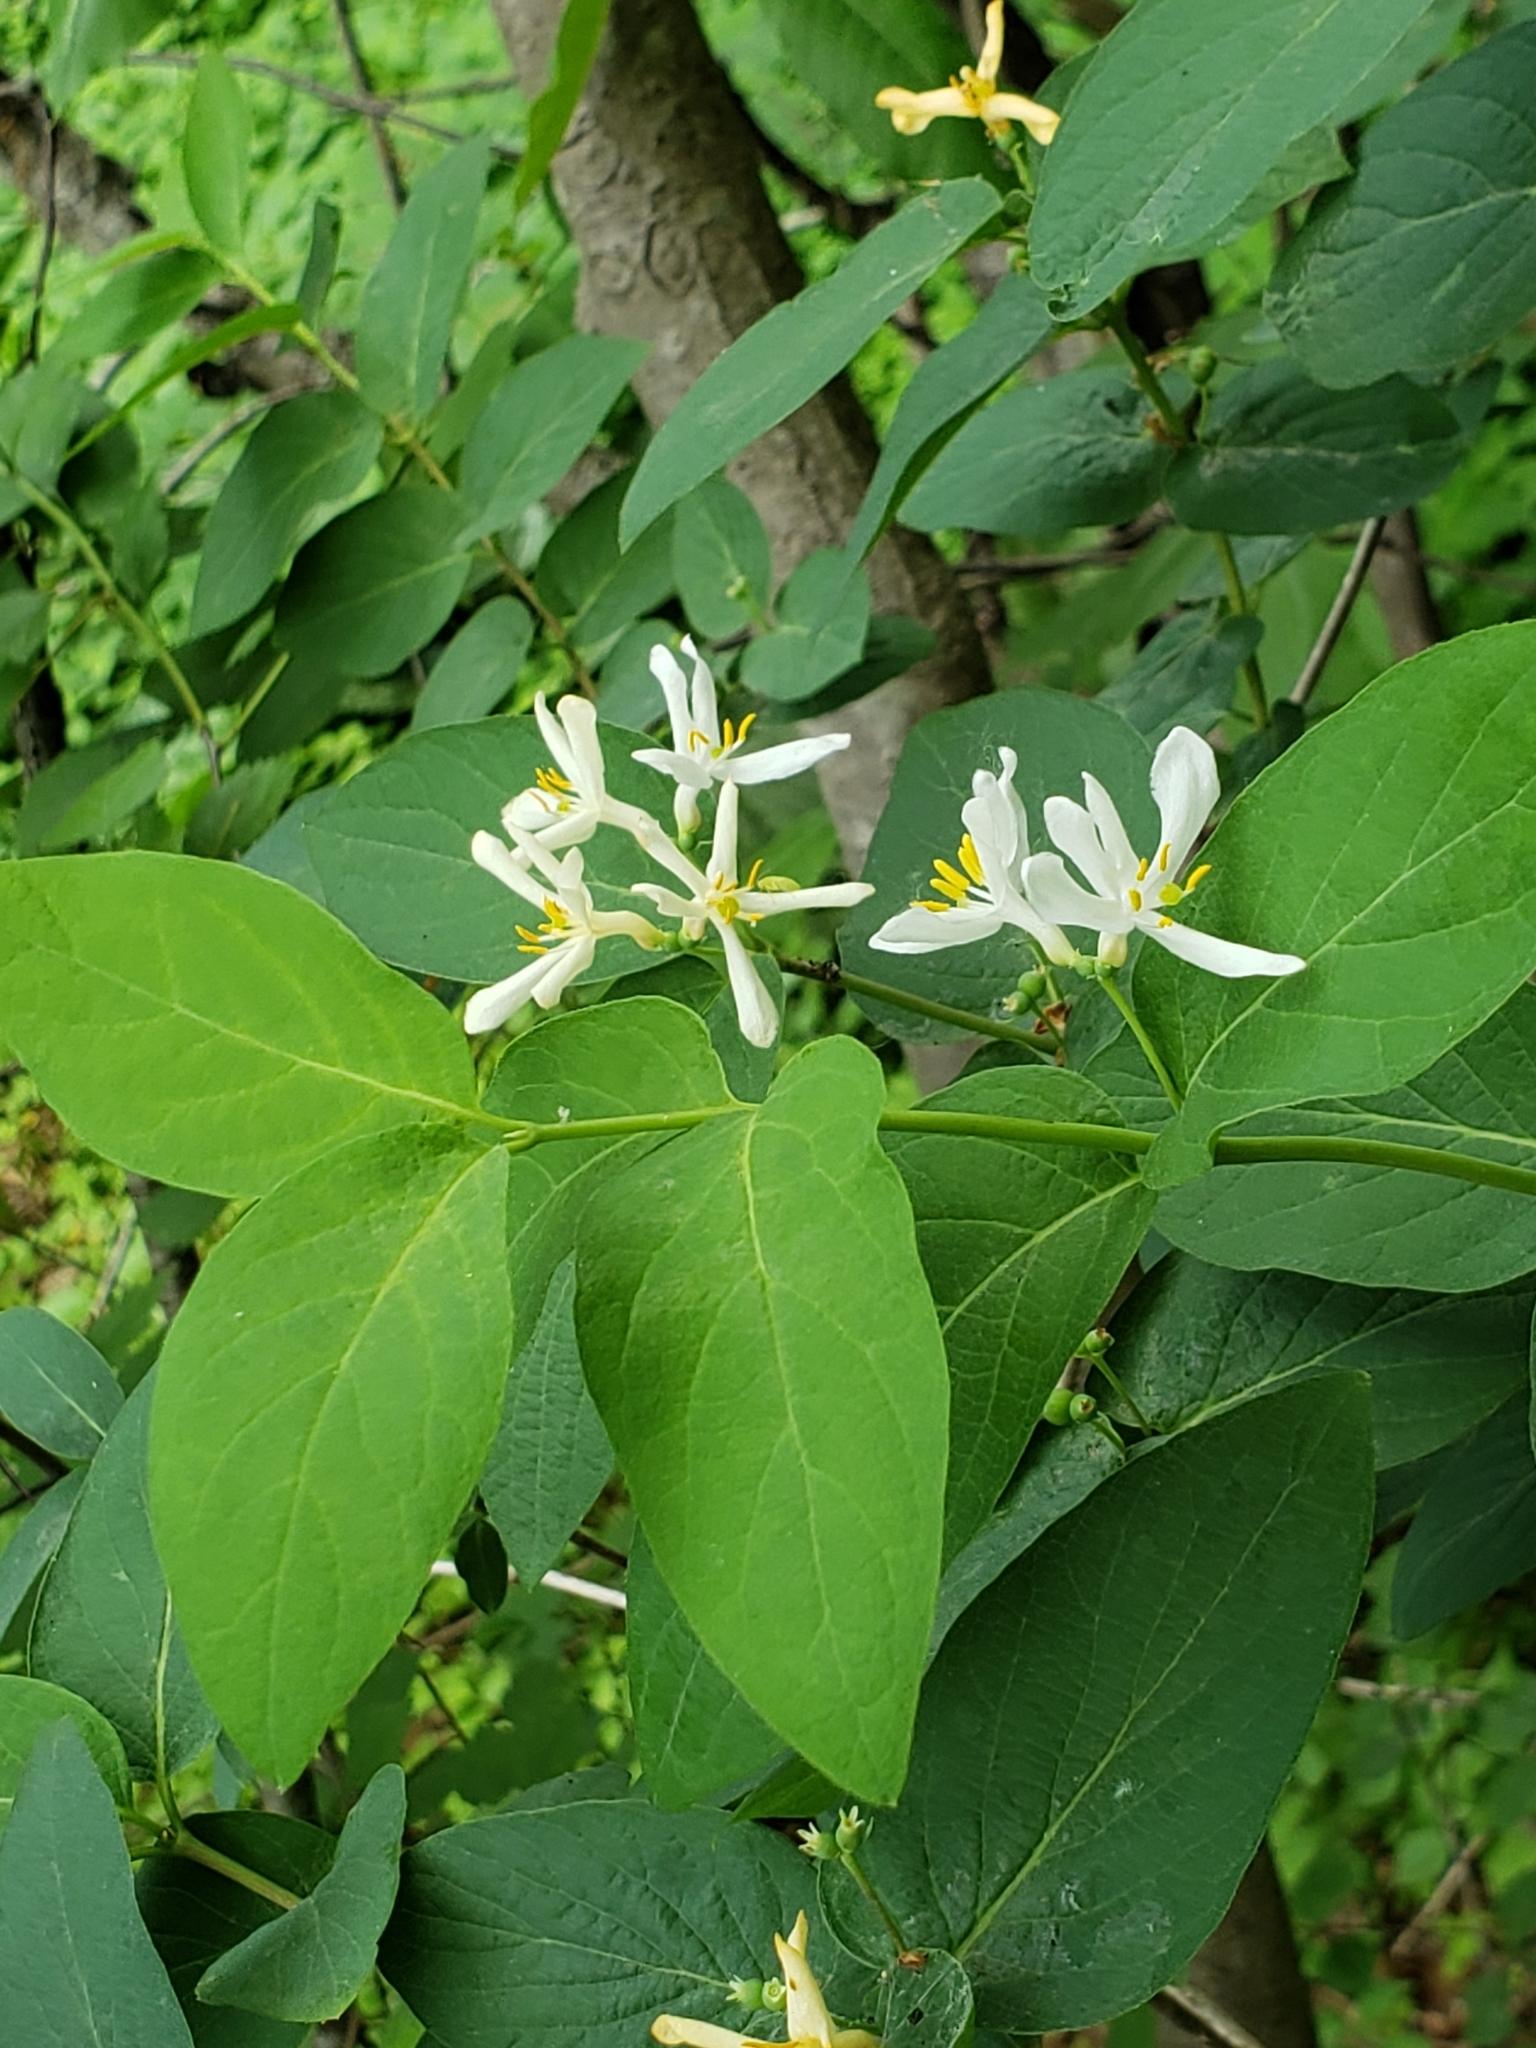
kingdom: Plantae
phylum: Tracheophyta
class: Magnoliopsida
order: Dipsacales
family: Caprifoliaceae
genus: Lonicera
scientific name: Lonicera morrowii
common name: Morrow's honeysuckle
